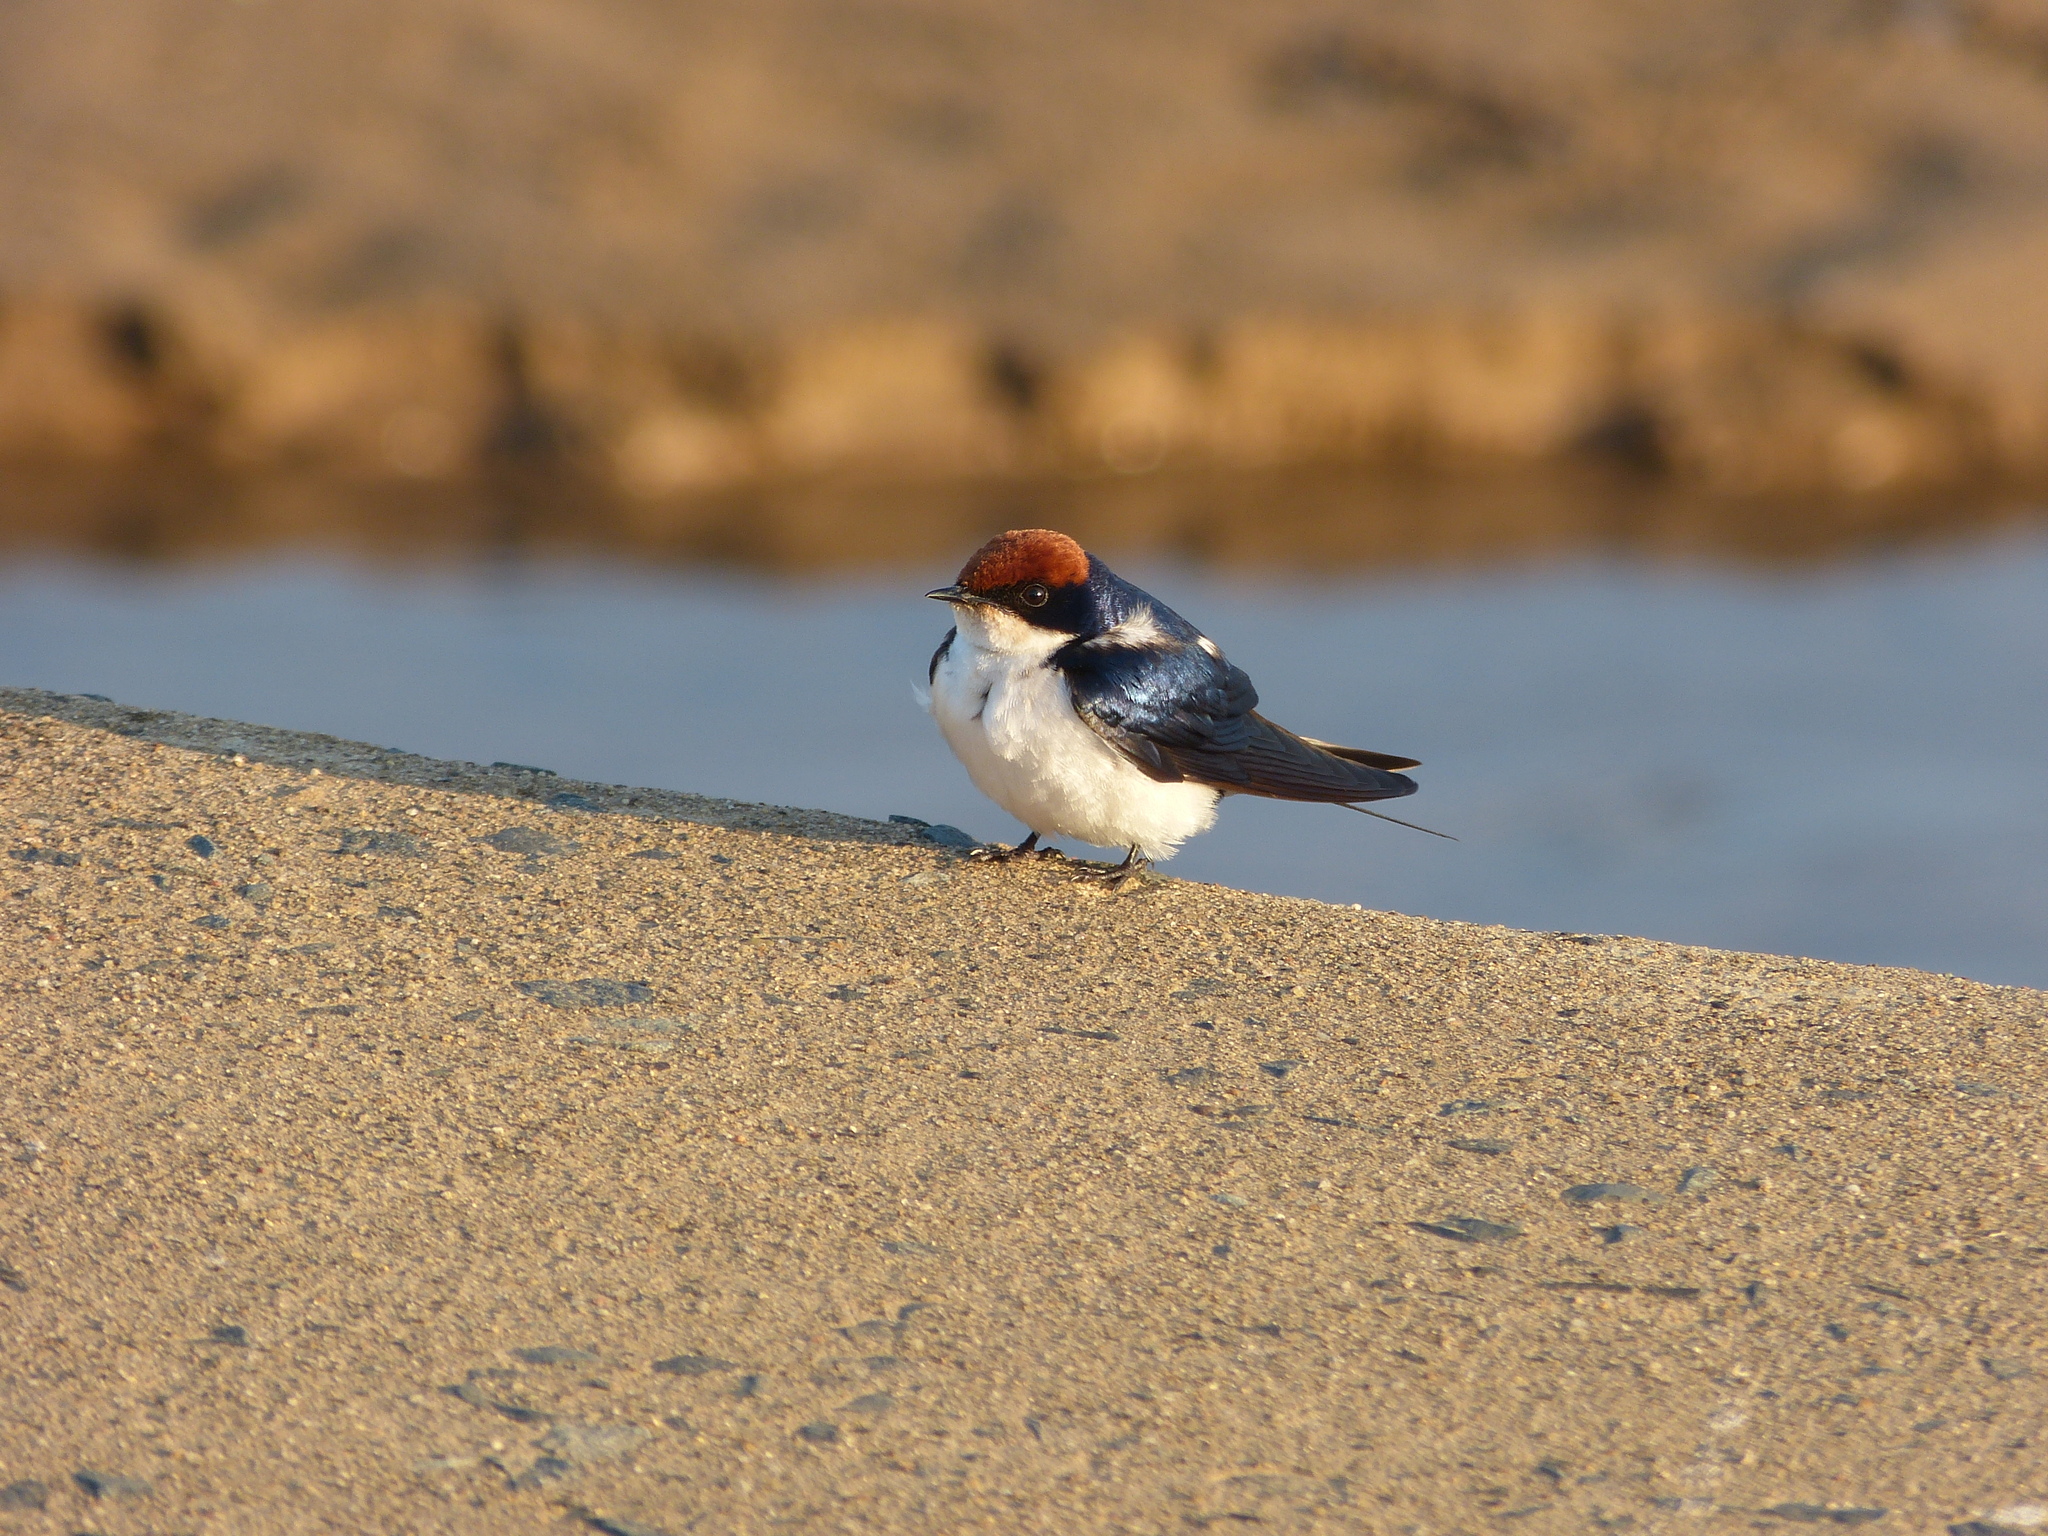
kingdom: Animalia
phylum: Chordata
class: Aves
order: Passeriformes
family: Hirundinidae
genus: Hirundo
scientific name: Hirundo smithii
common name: Wire-tailed swallow
